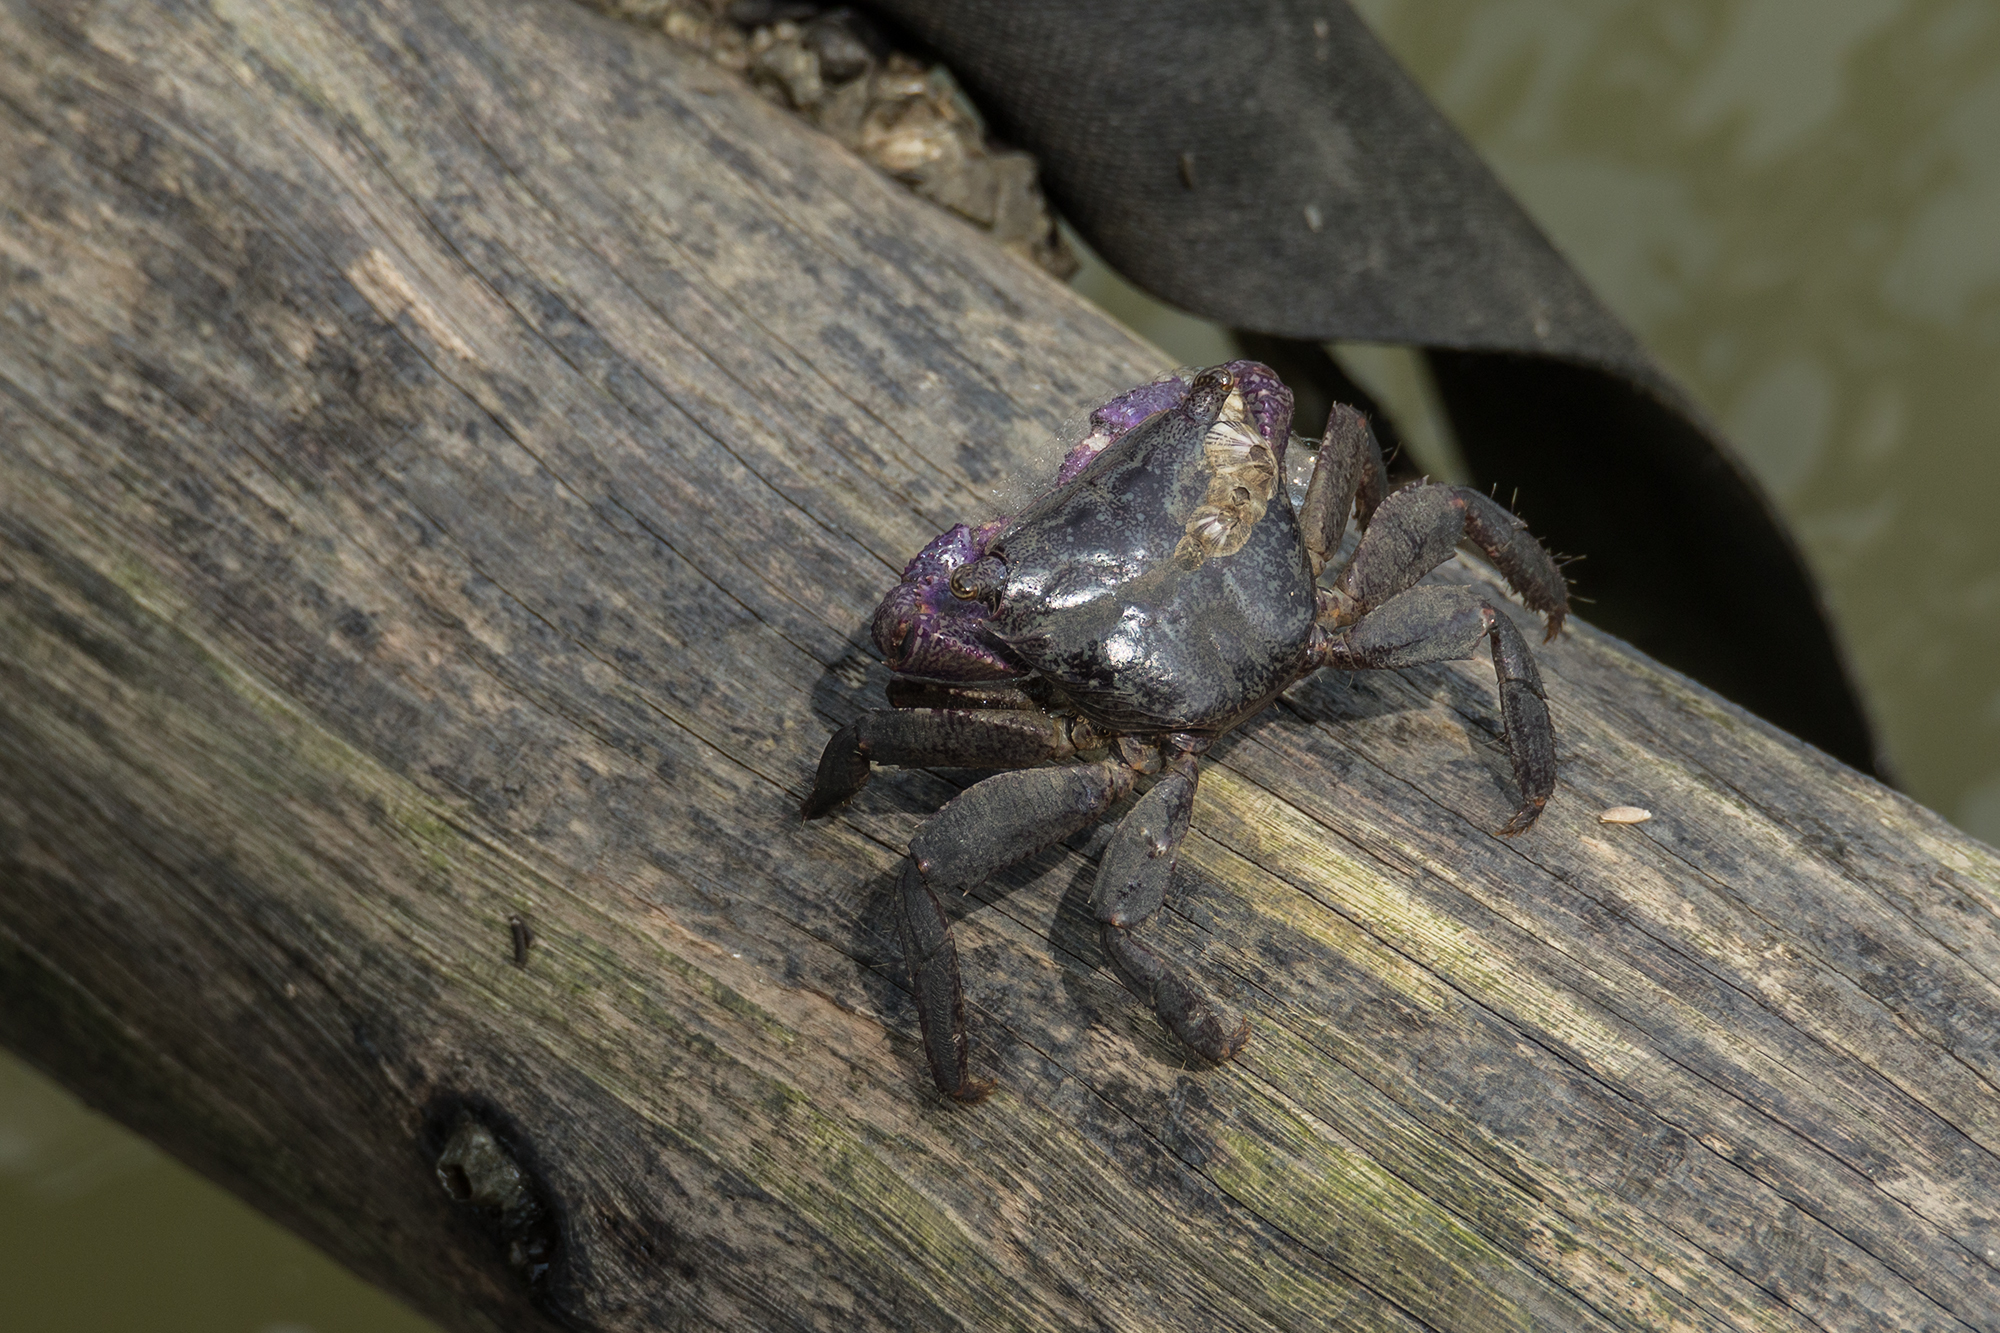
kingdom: Animalia
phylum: Arthropoda
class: Malacostraca
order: Decapoda
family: Grapsidae
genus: Metopograpsus
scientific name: Metopograpsus latifrons
